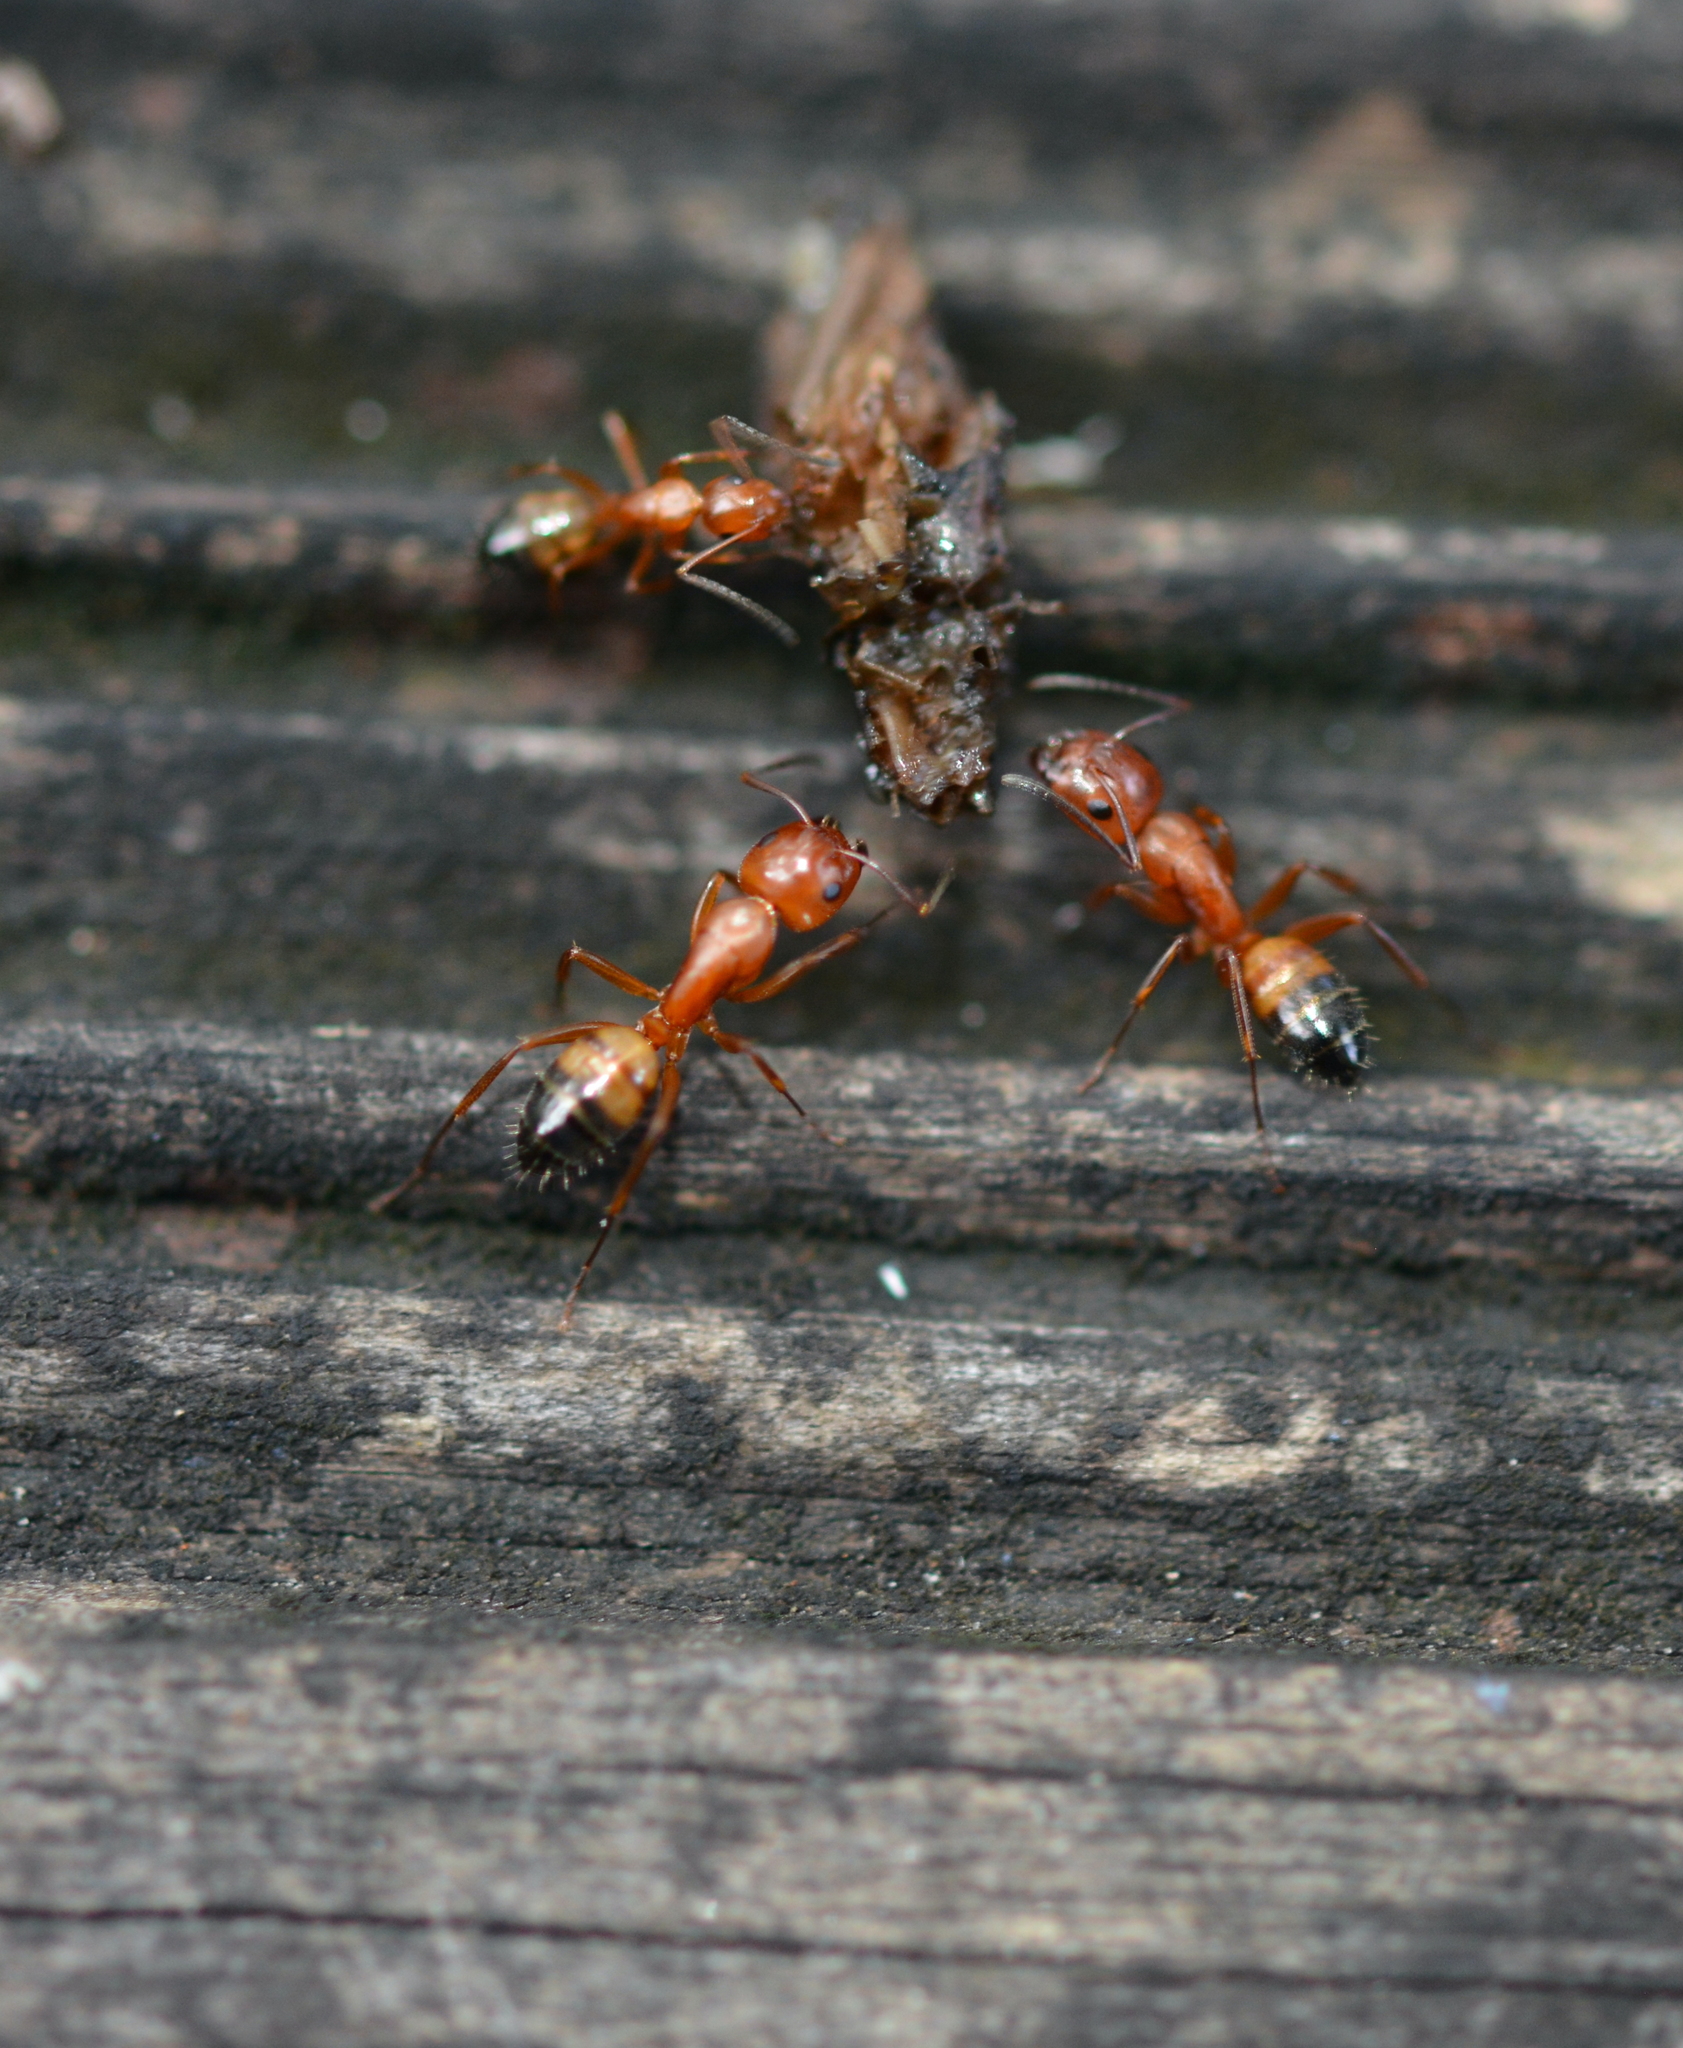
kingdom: Animalia
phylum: Arthropoda
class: Insecta
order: Hymenoptera
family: Formicidae
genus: Camponotus
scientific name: Camponotus snellingi
